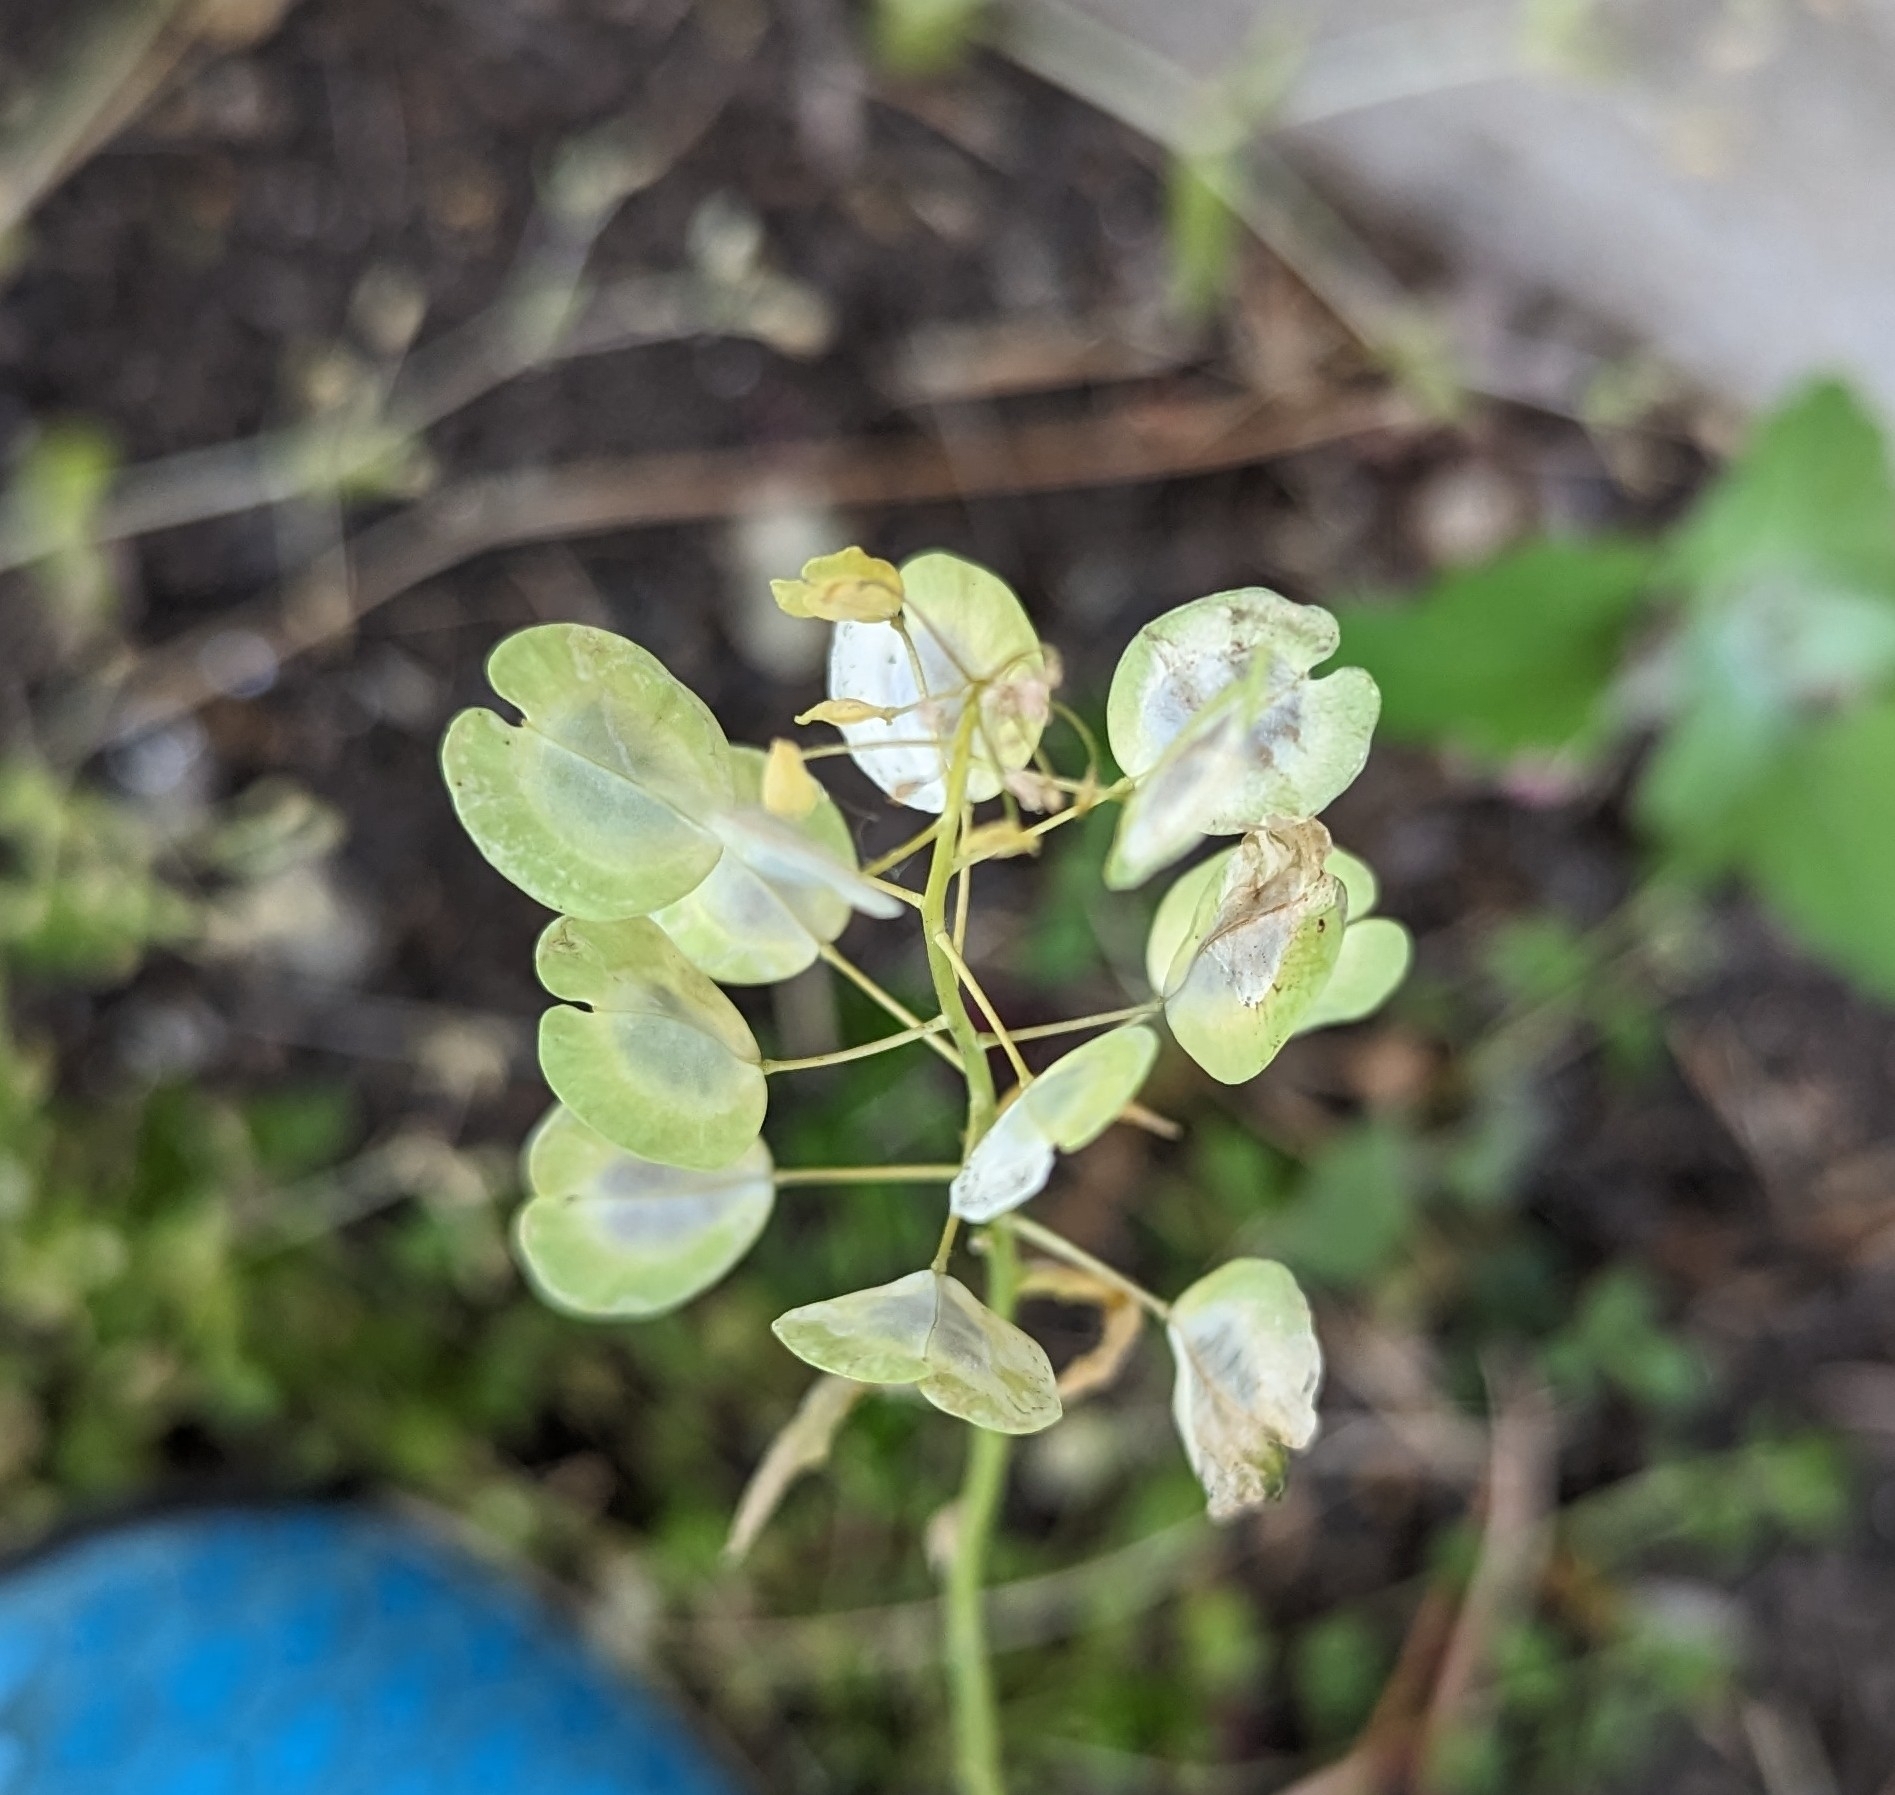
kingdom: Plantae
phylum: Tracheophyta
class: Magnoliopsida
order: Brassicales
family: Brassicaceae
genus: Thlaspi
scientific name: Thlaspi arvense
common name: Field pennycress
